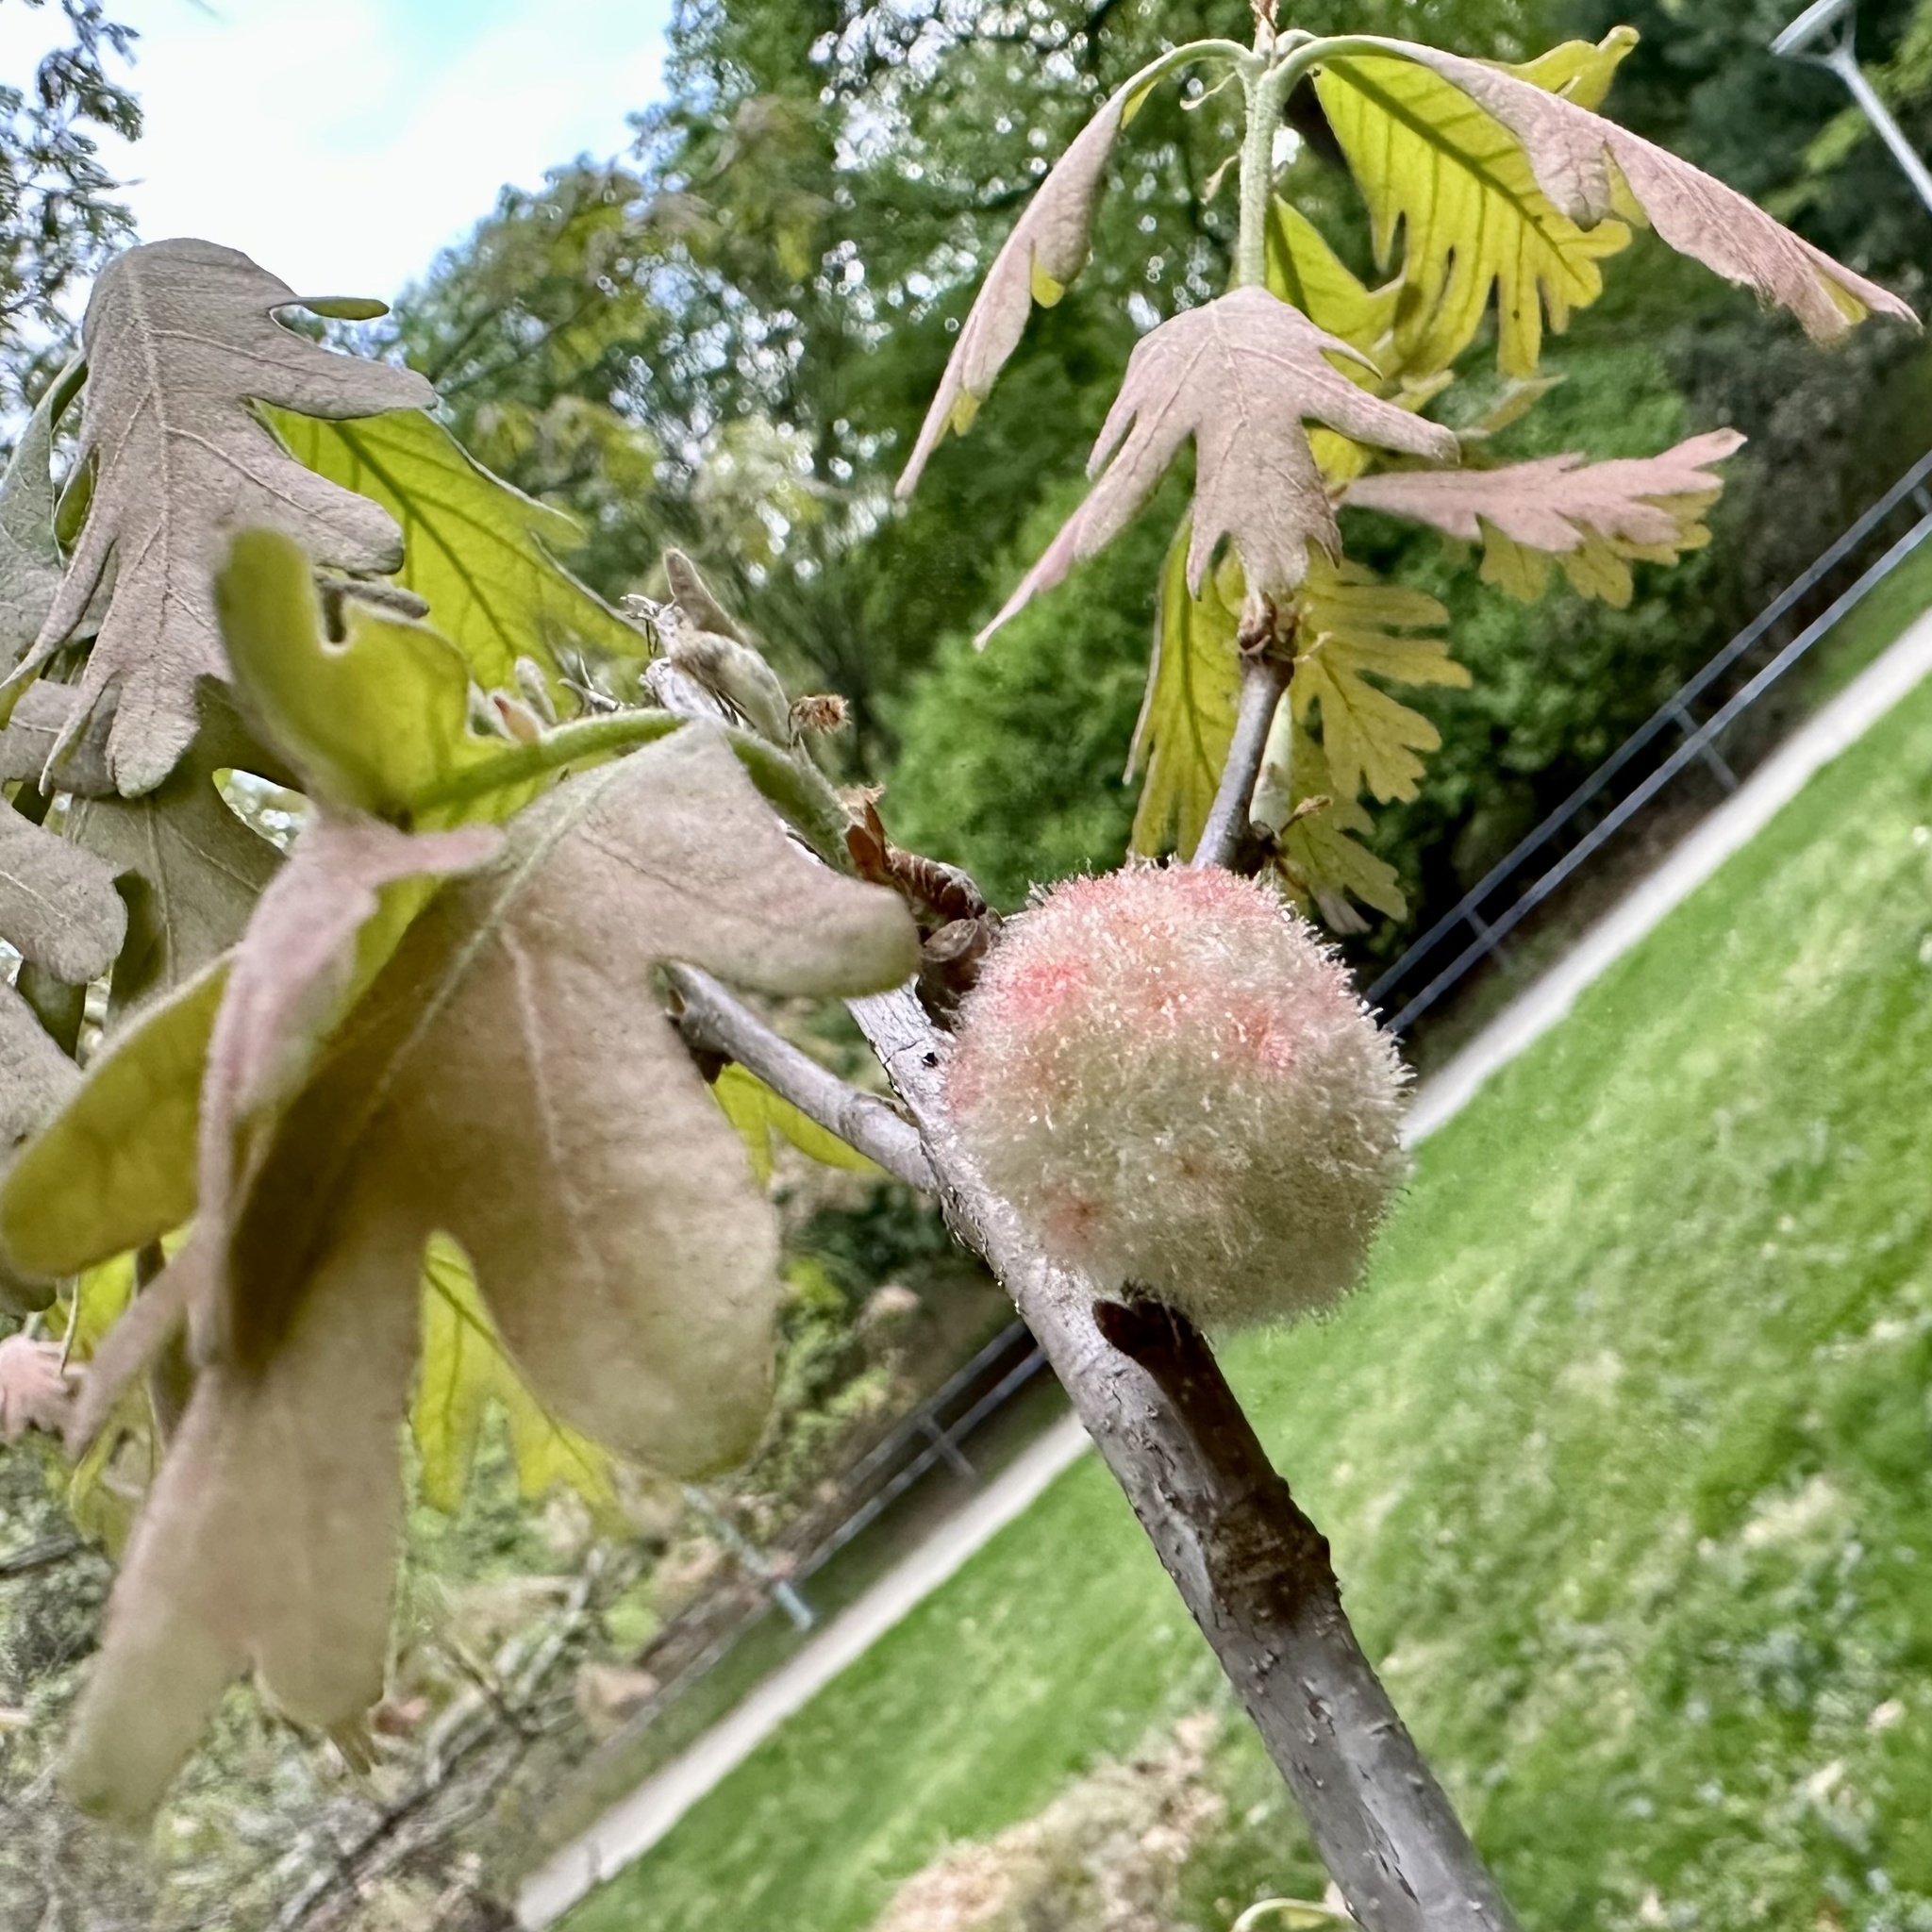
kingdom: Animalia
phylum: Arthropoda
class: Insecta
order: Hymenoptera
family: Cynipidae
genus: Callirhytis
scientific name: Callirhytis
